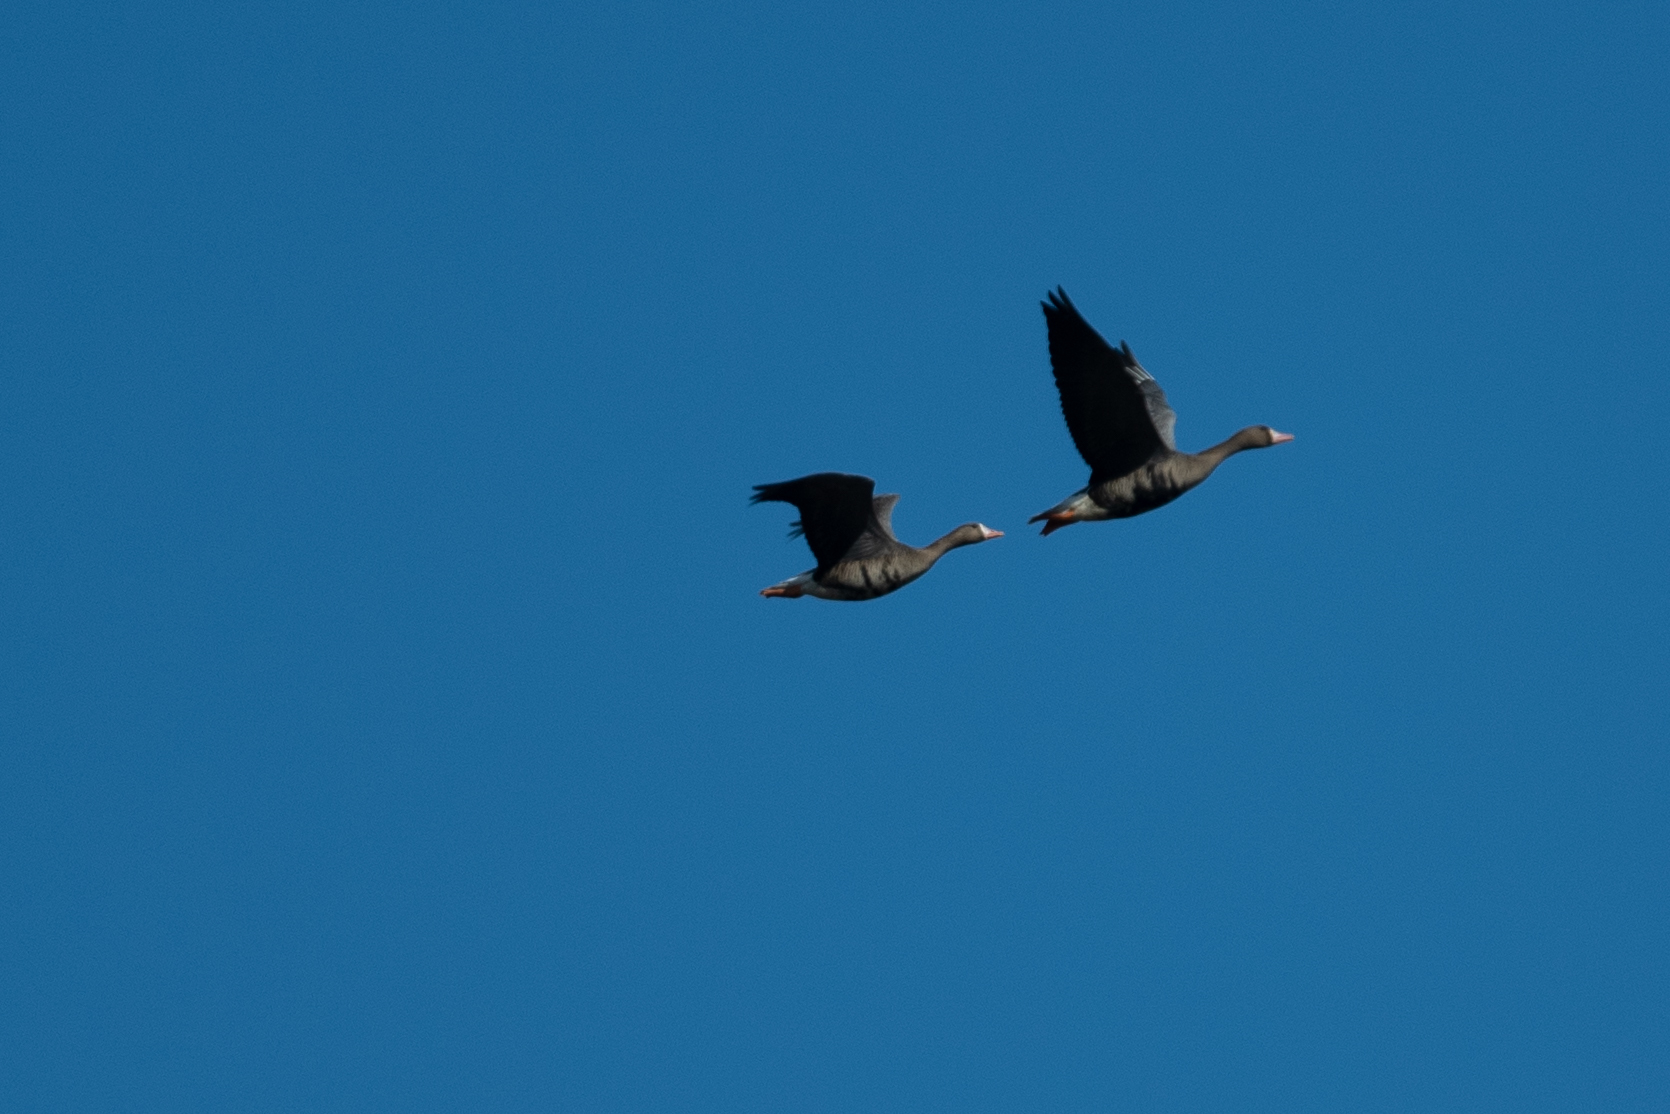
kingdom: Animalia
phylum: Chordata
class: Aves
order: Anseriformes
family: Anatidae
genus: Anser
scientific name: Anser albifrons
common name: Greater white-fronted goose
